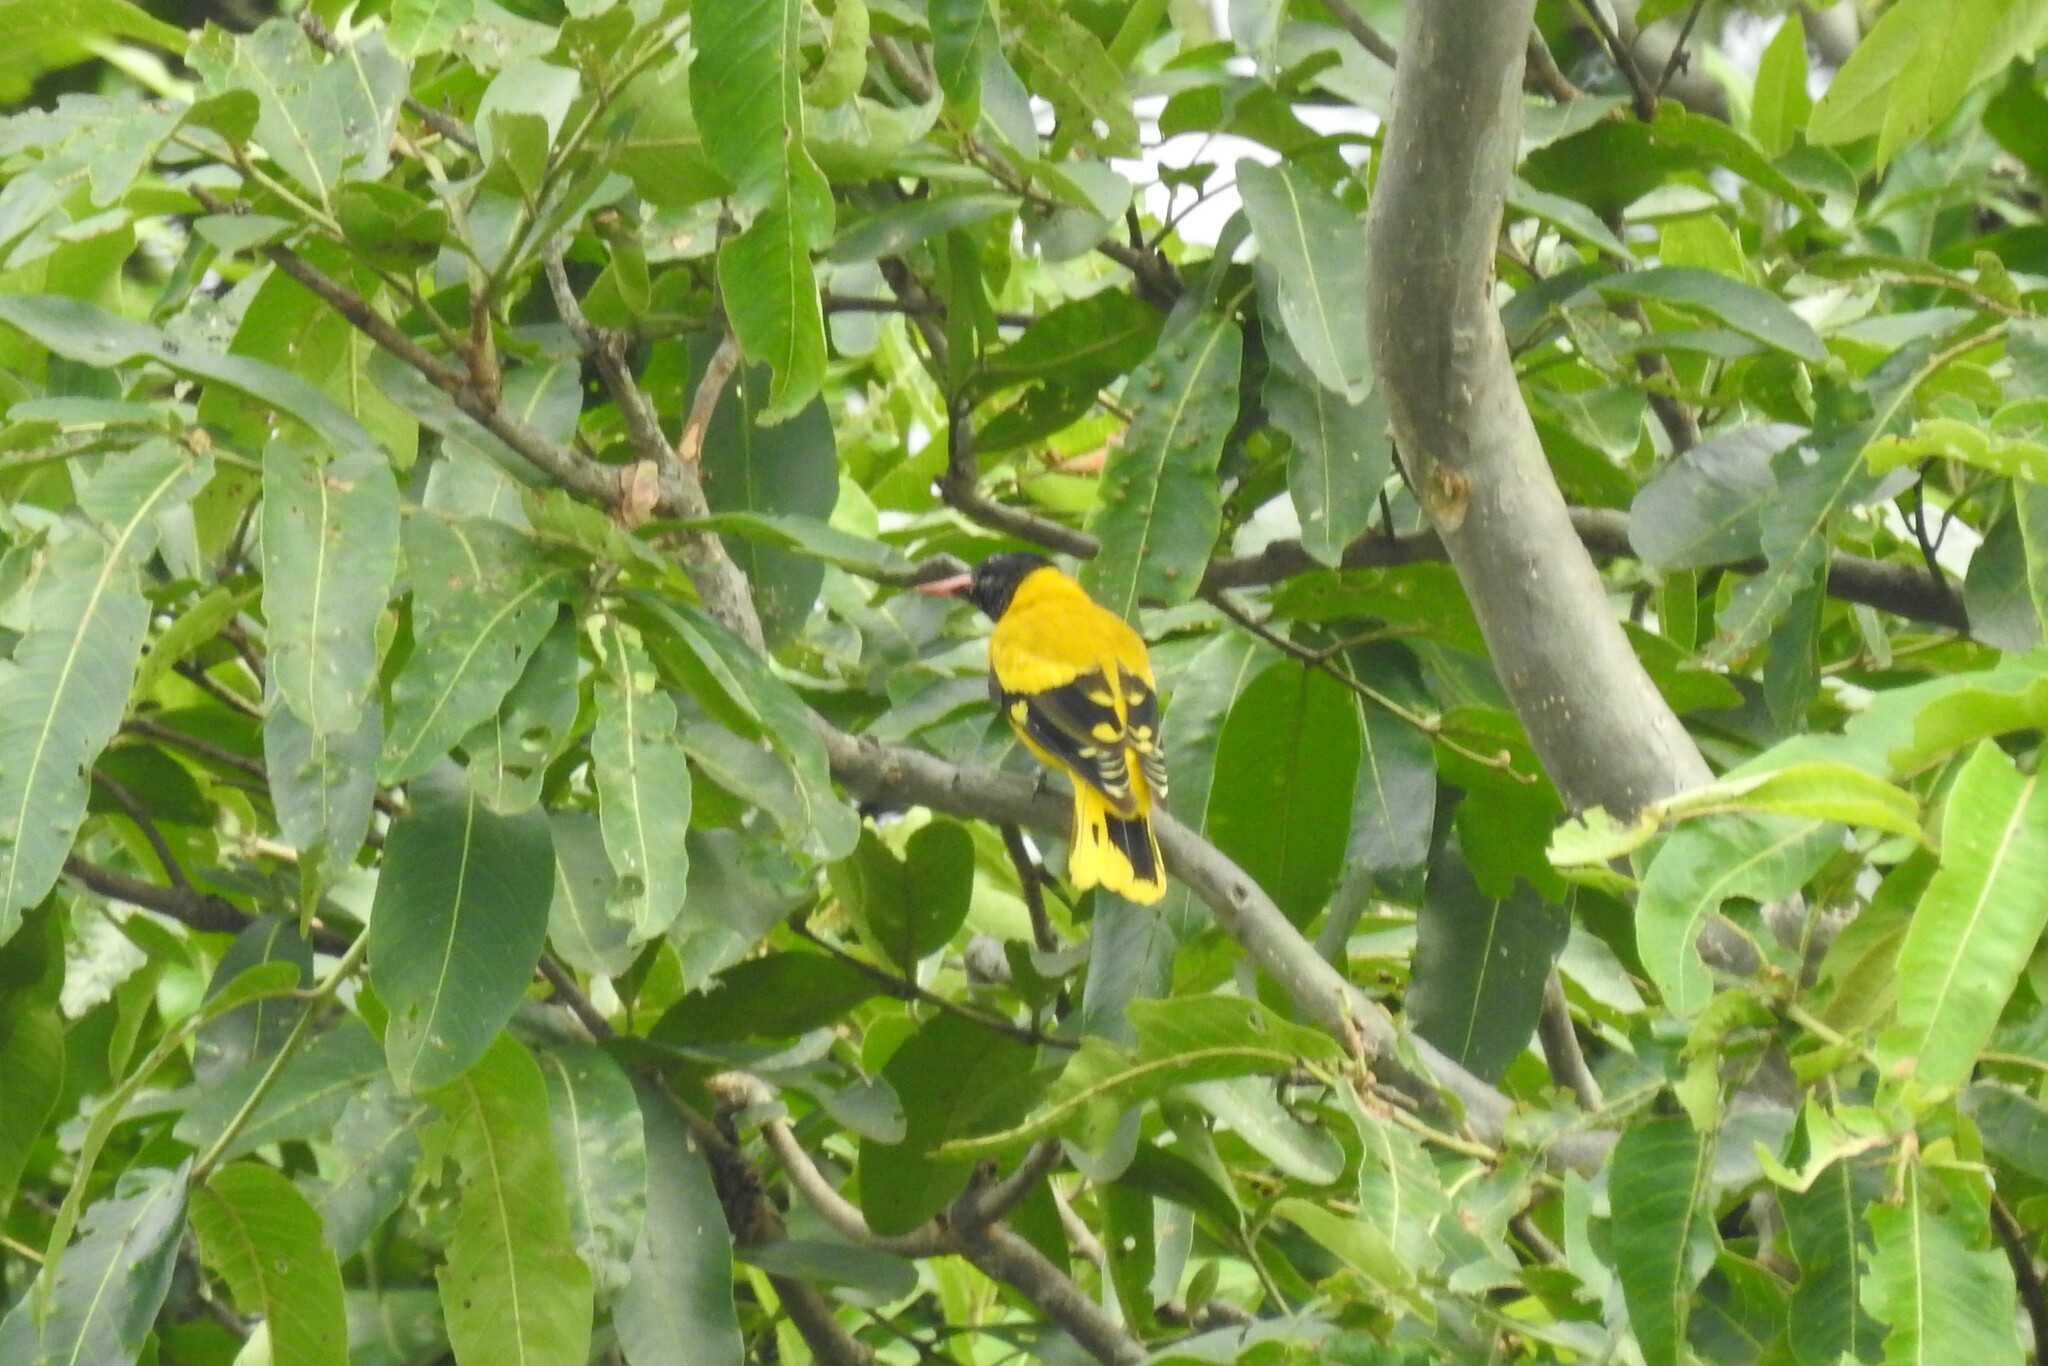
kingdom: Animalia
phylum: Chordata
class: Aves
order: Passeriformes
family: Oriolidae
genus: Oriolus
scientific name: Oriolus xanthornus
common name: Black-hooded oriole
